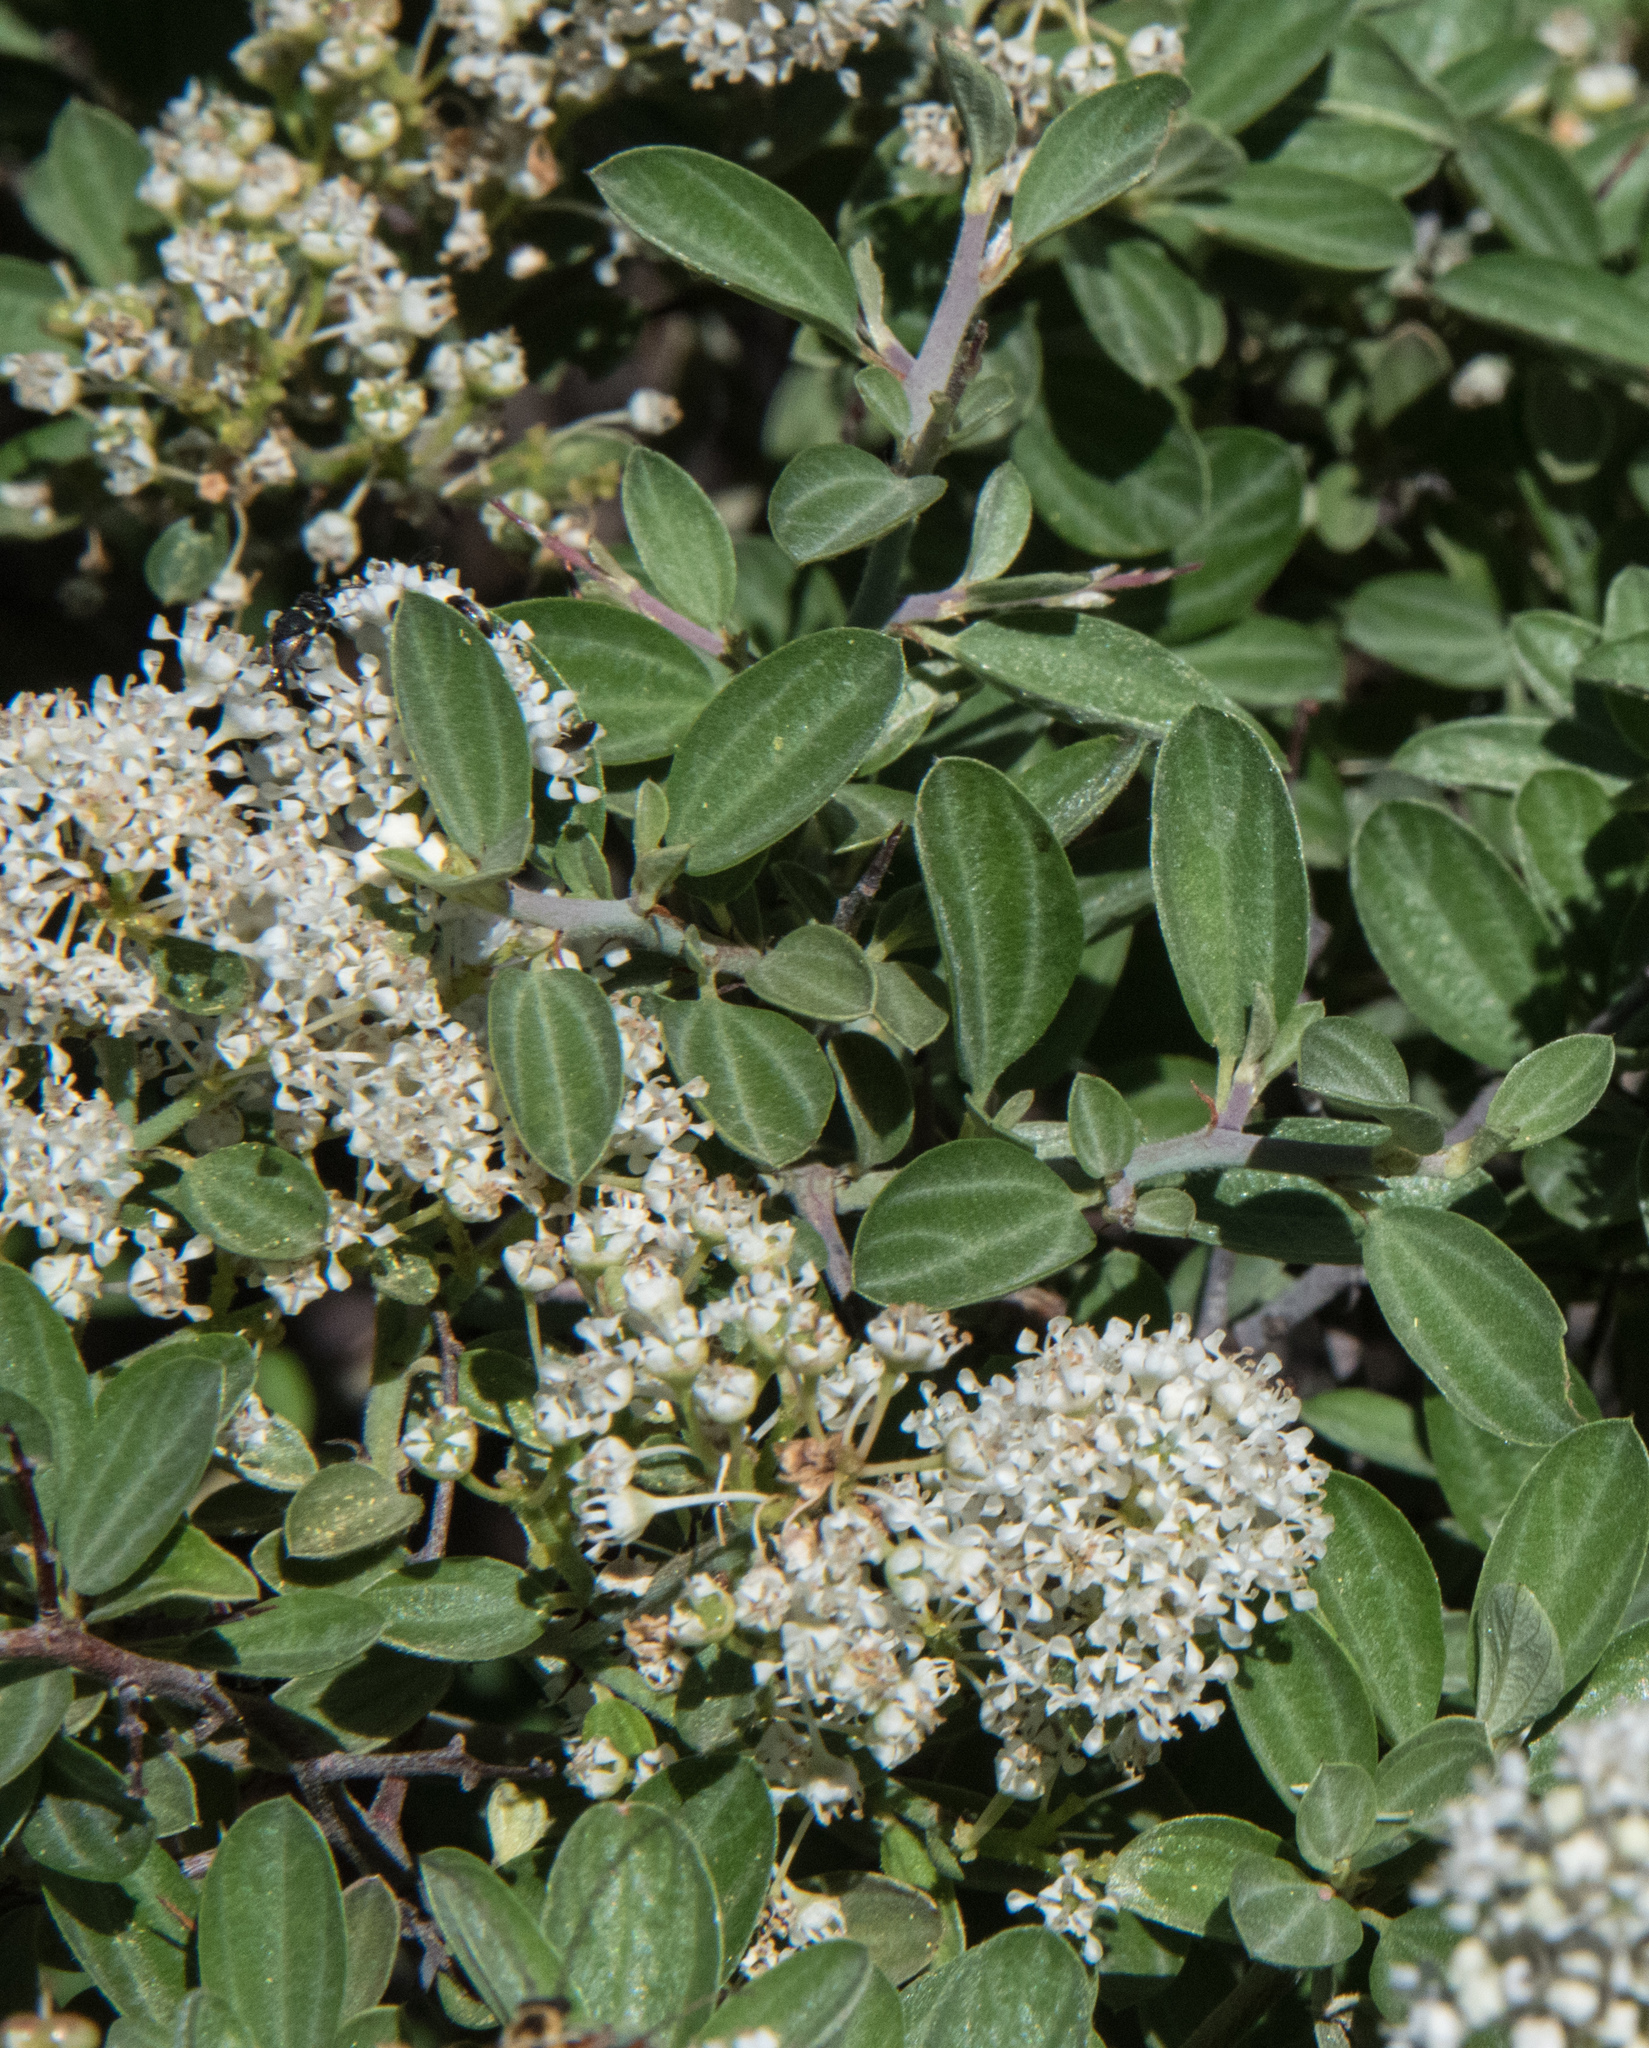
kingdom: Plantae
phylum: Tracheophyta
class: Magnoliopsida
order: Rosales
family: Rhamnaceae
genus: Ceanothus
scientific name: Ceanothus fendleri
